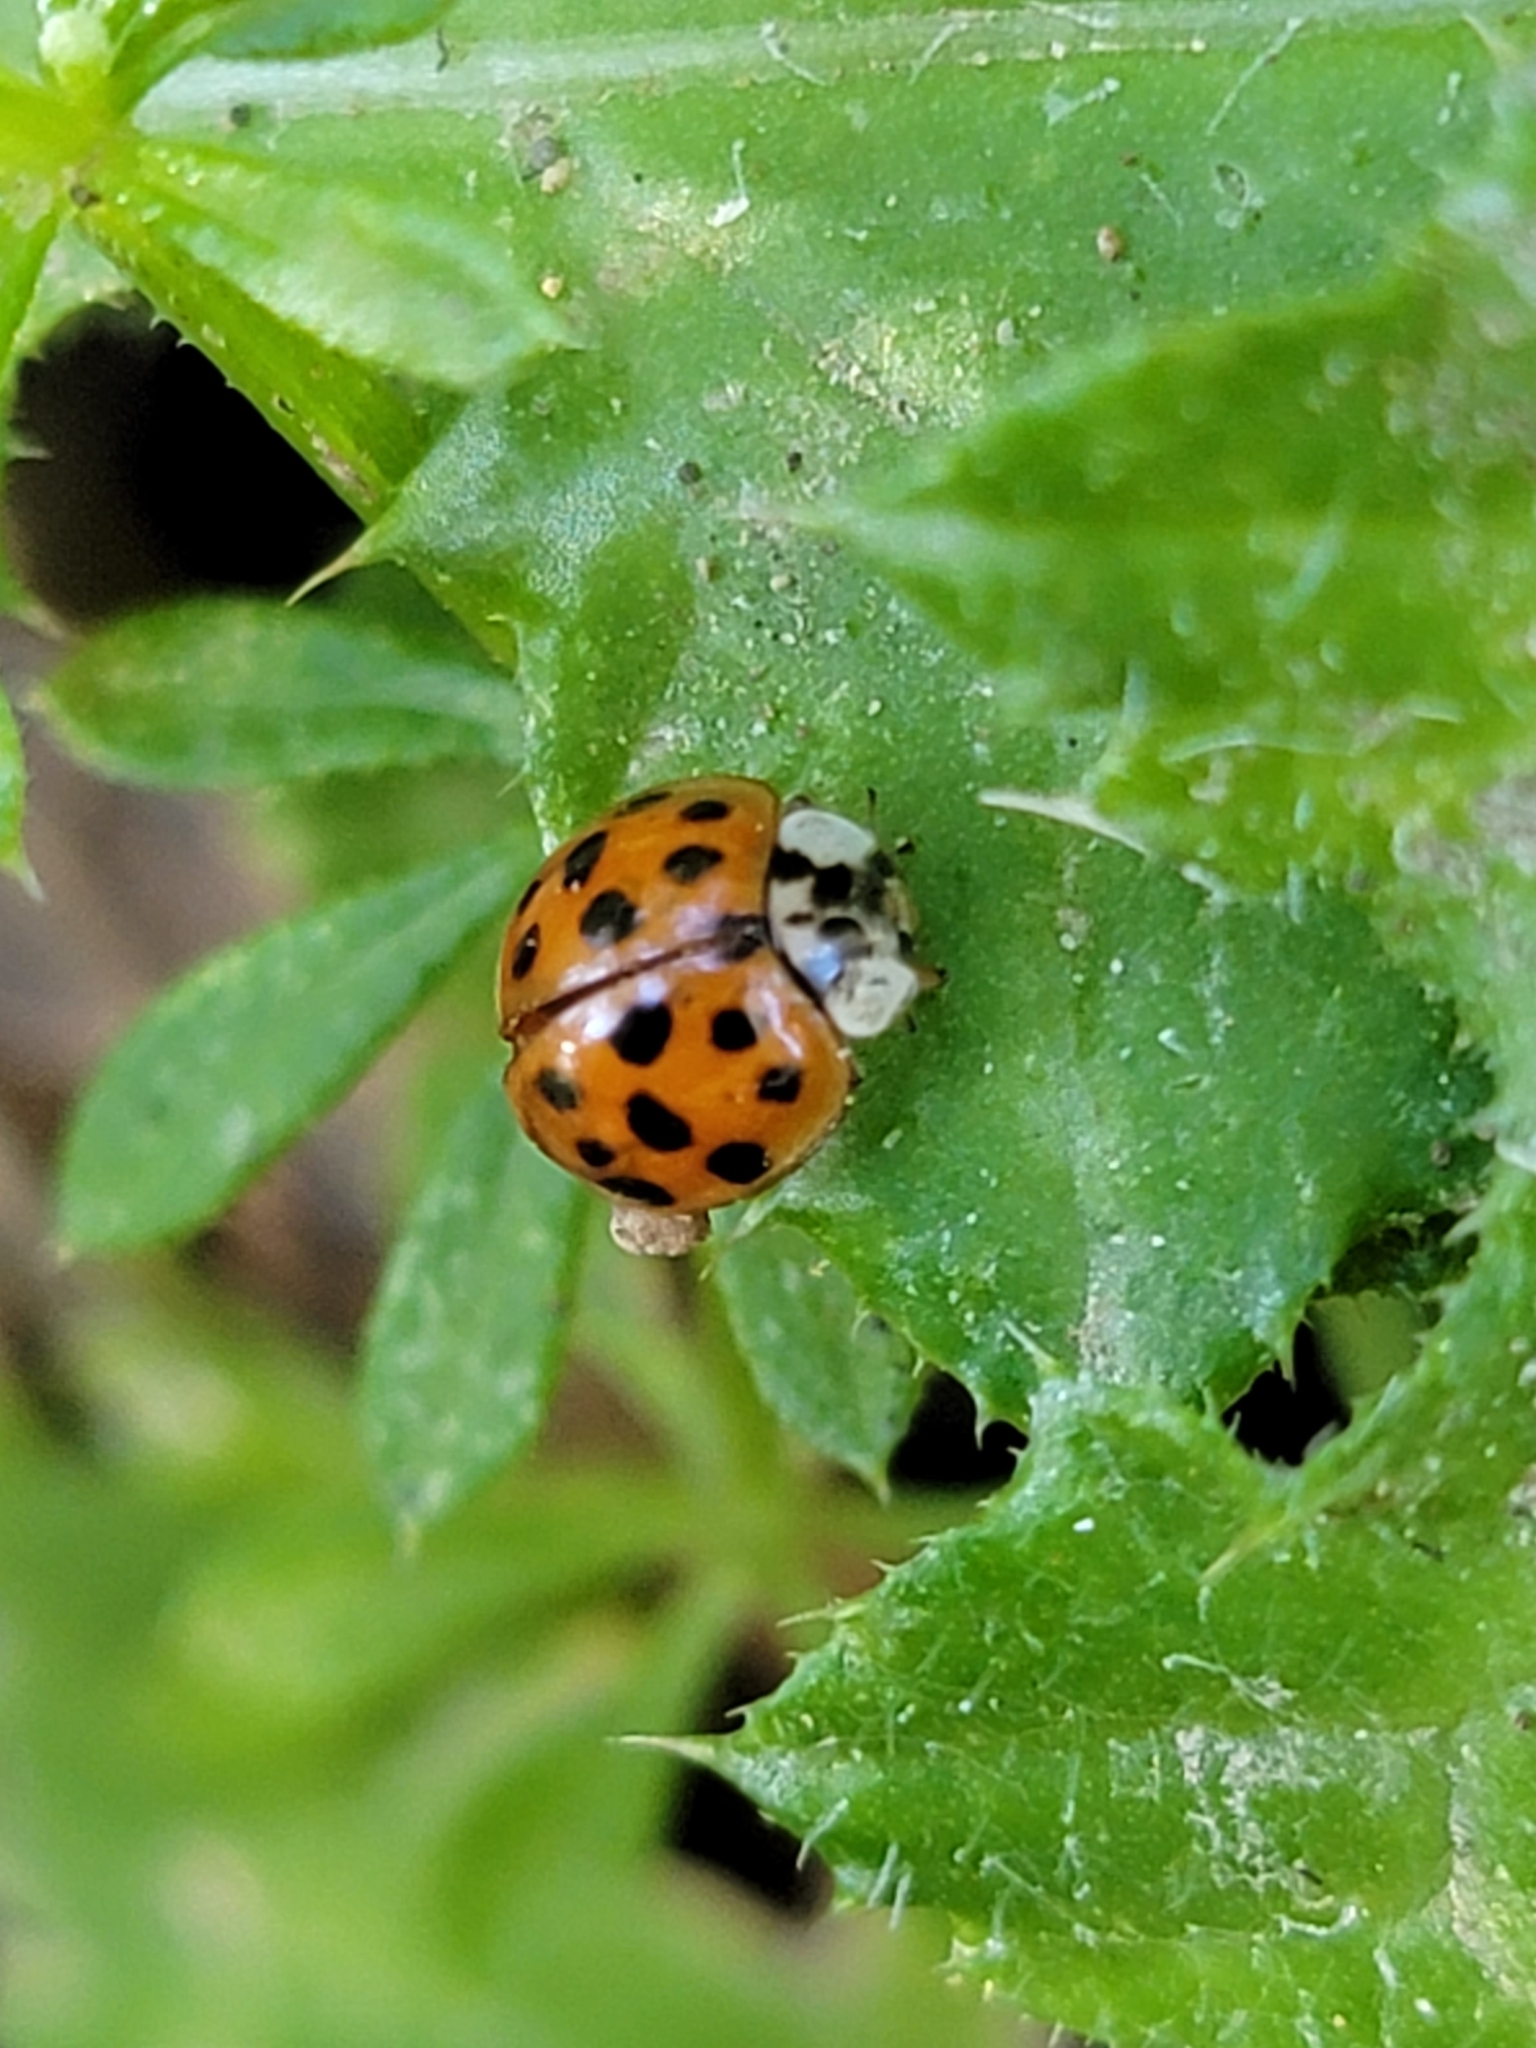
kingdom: Animalia
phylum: Arthropoda
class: Insecta
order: Coleoptera
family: Coccinellidae
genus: Harmonia
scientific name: Harmonia axyridis
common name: Harlequin ladybird
